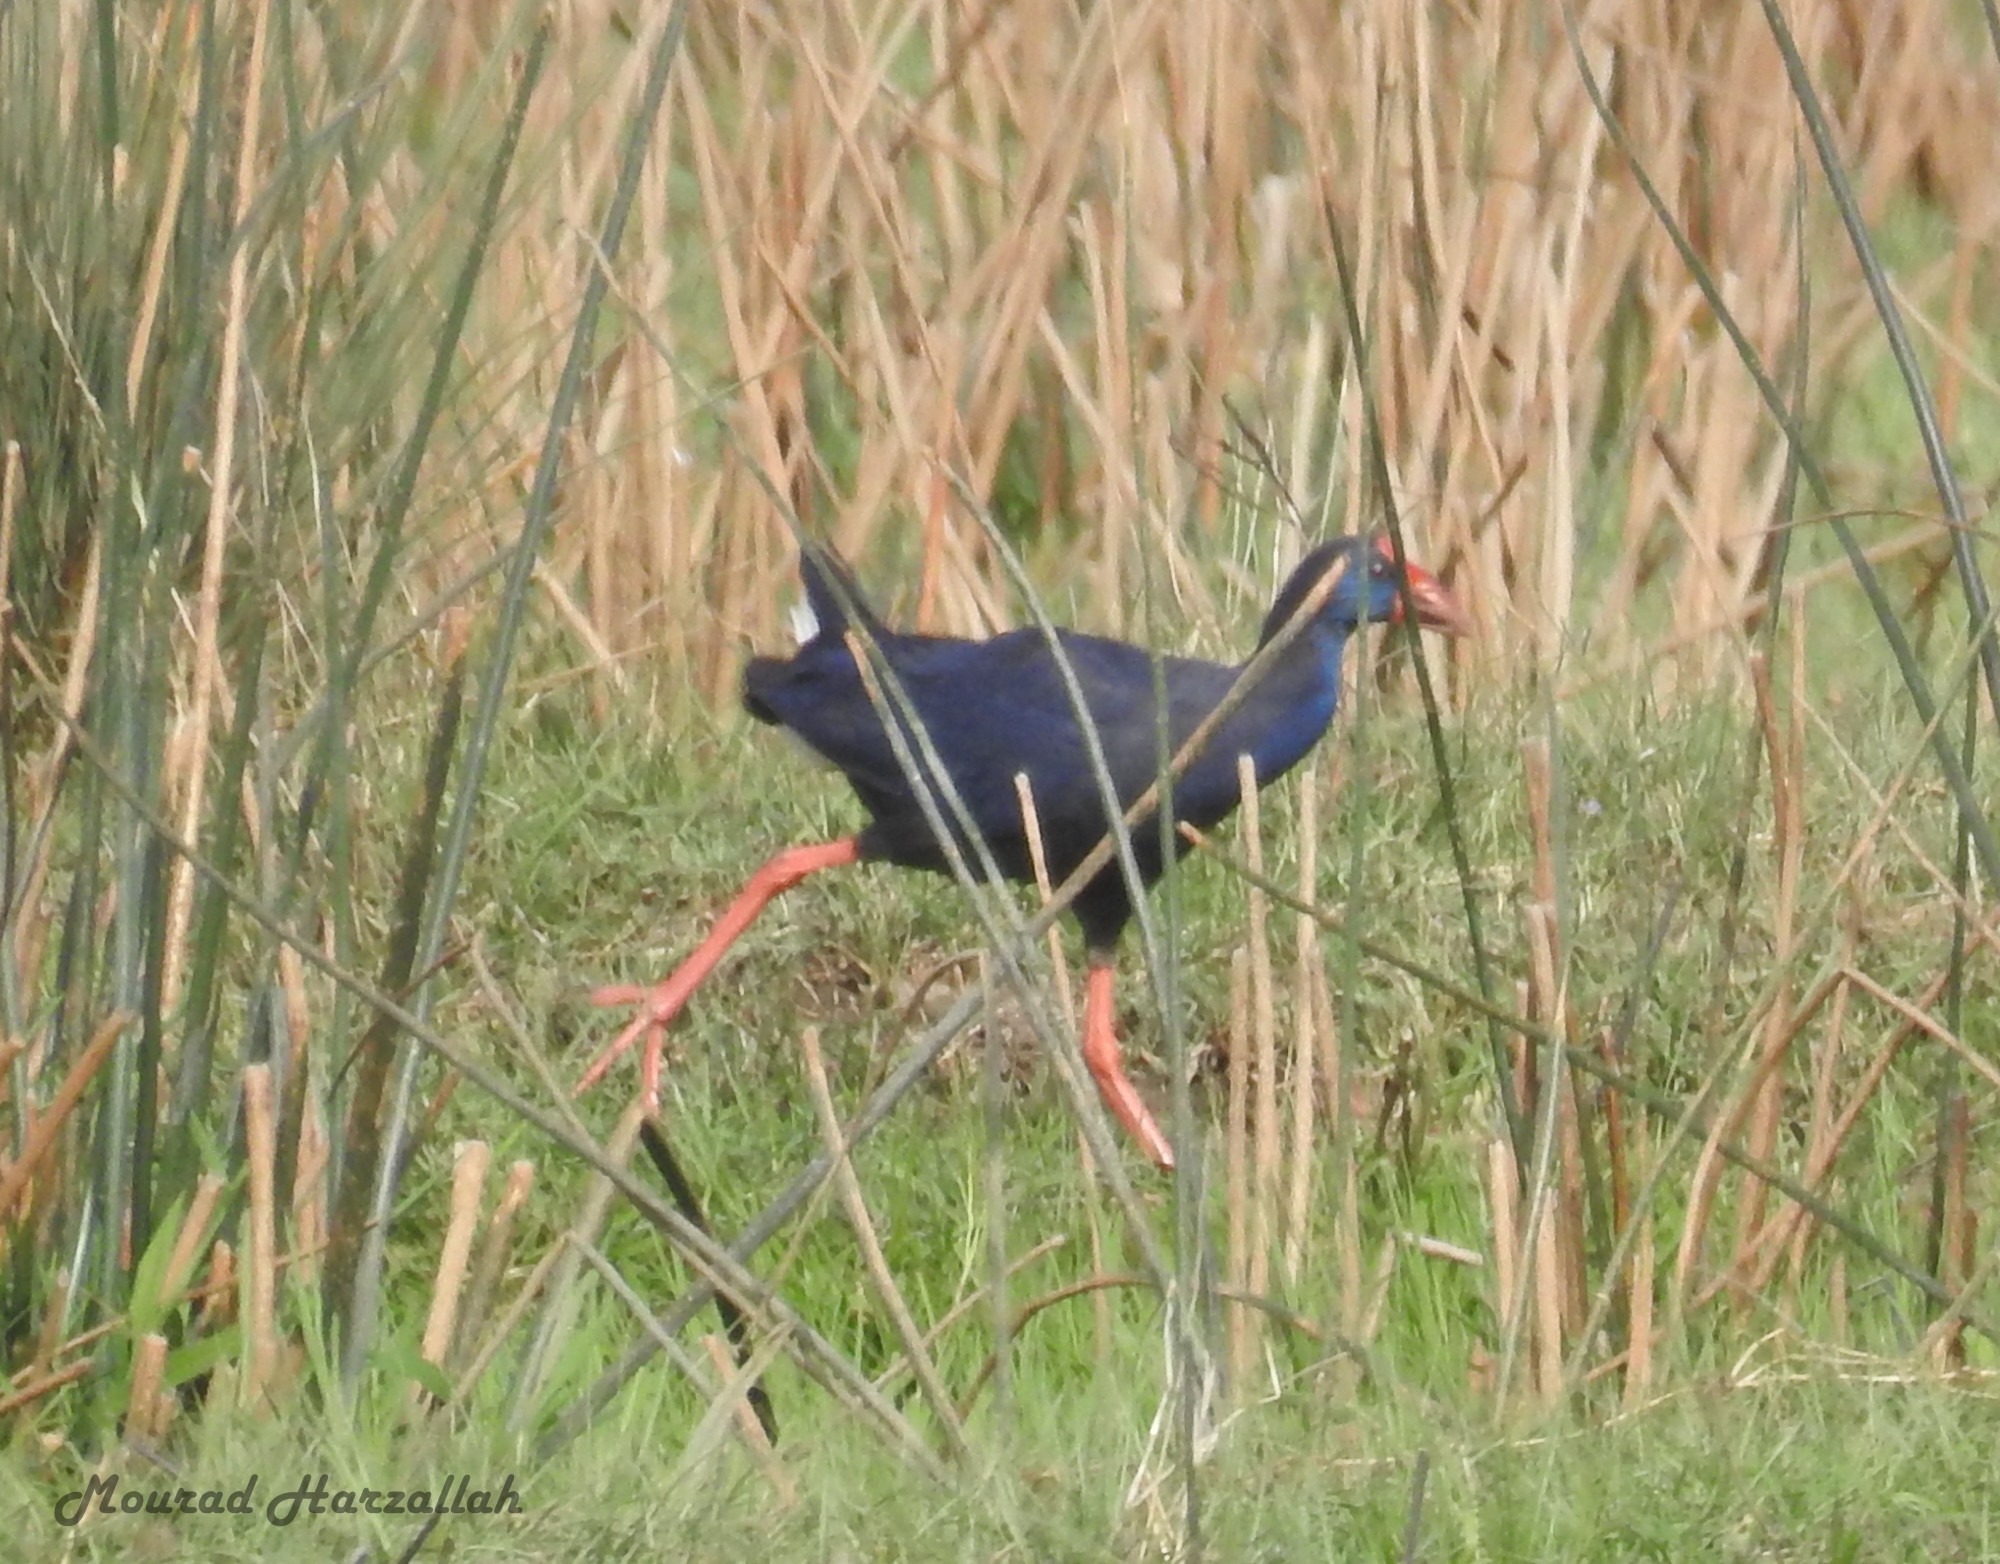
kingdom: Animalia
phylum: Chordata
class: Aves
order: Gruiformes
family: Rallidae
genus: Porphyrio
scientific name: Porphyrio porphyrio
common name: Purple swamphen
